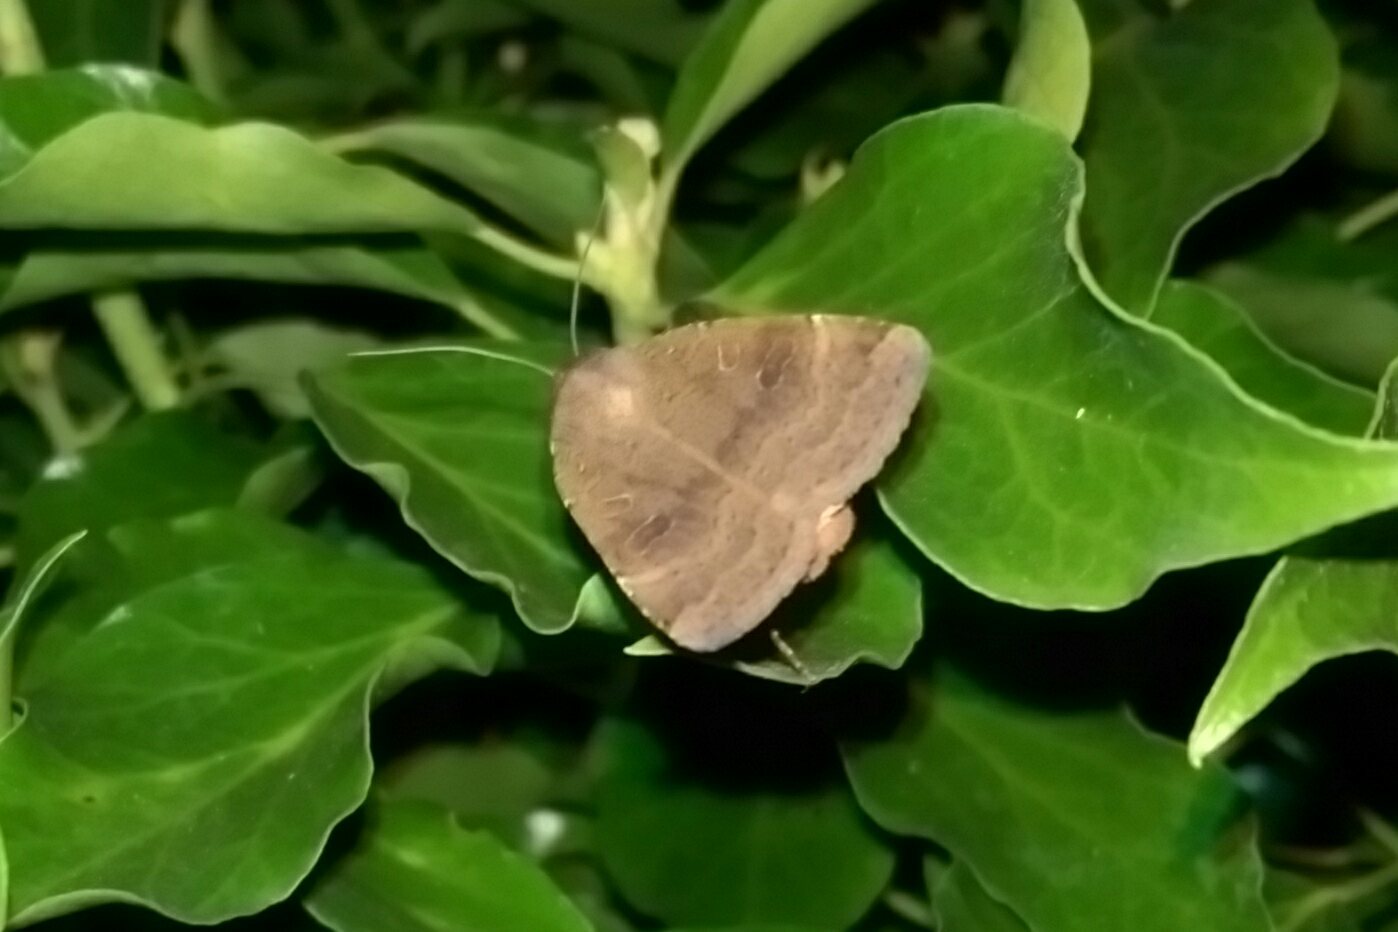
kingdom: Animalia
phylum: Arthropoda
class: Insecta
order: Lepidoptera
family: Noctuidae
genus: Noctua
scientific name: Noctua comes
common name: Lesser yellow underwing
